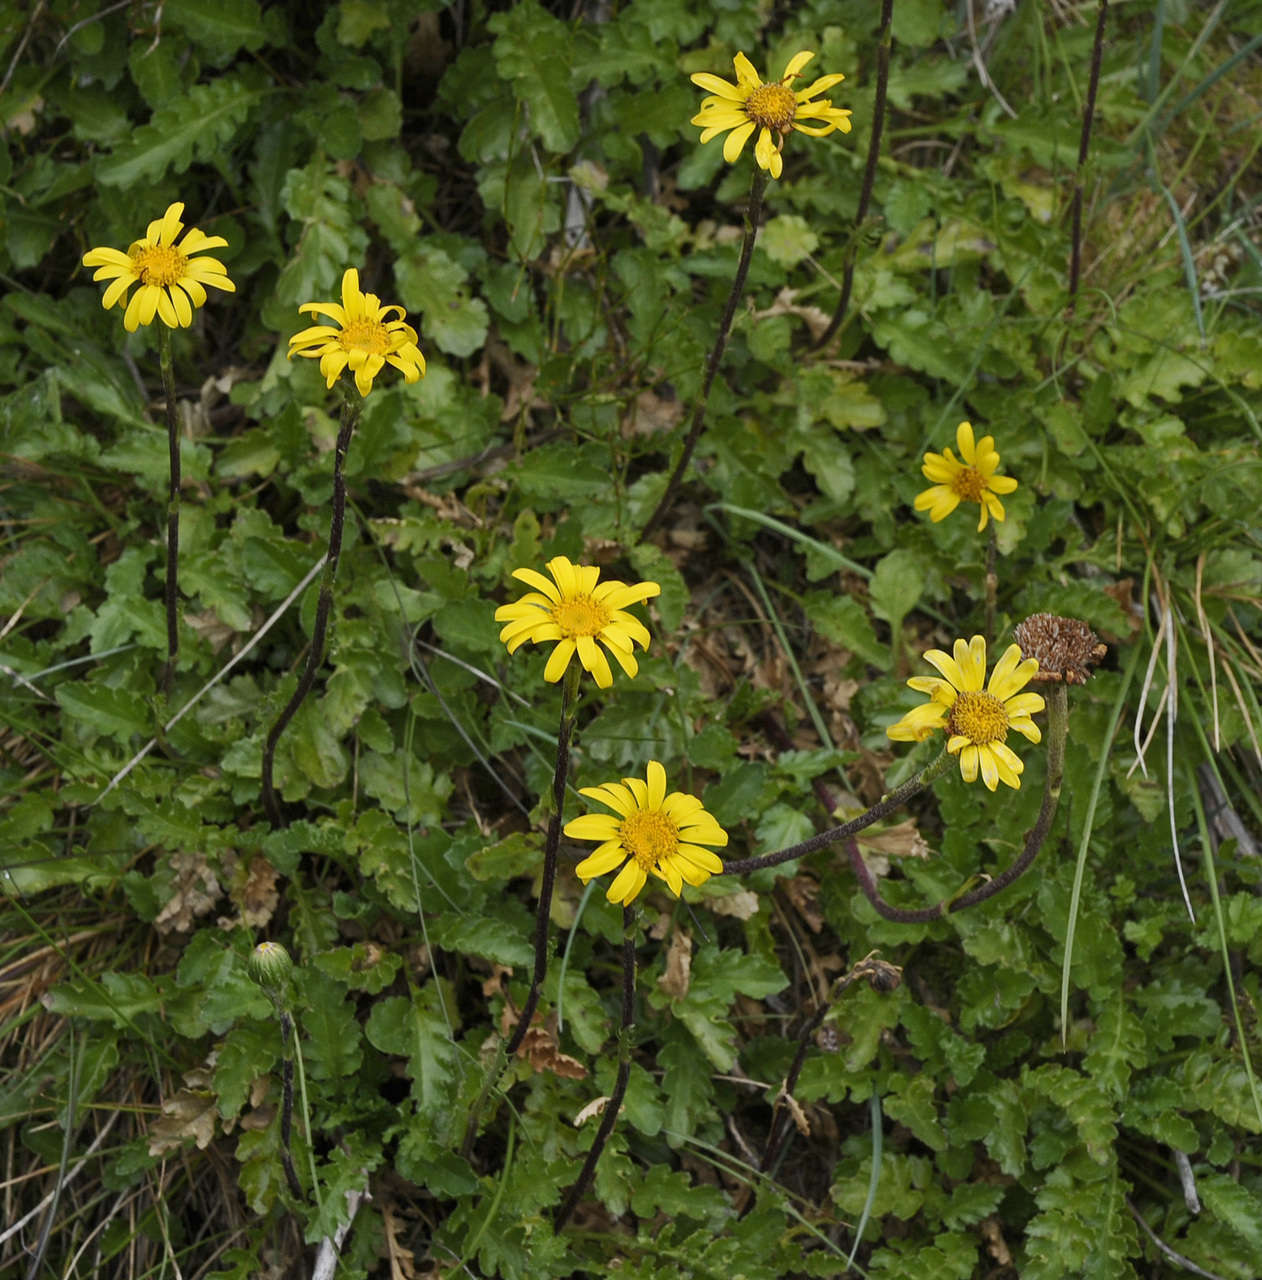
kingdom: Plantae
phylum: Tracheophyta
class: Magnoliopsida
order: Asterales
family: Asteraceae
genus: Scapisenecio
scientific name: Scapisenecio pectinatus
